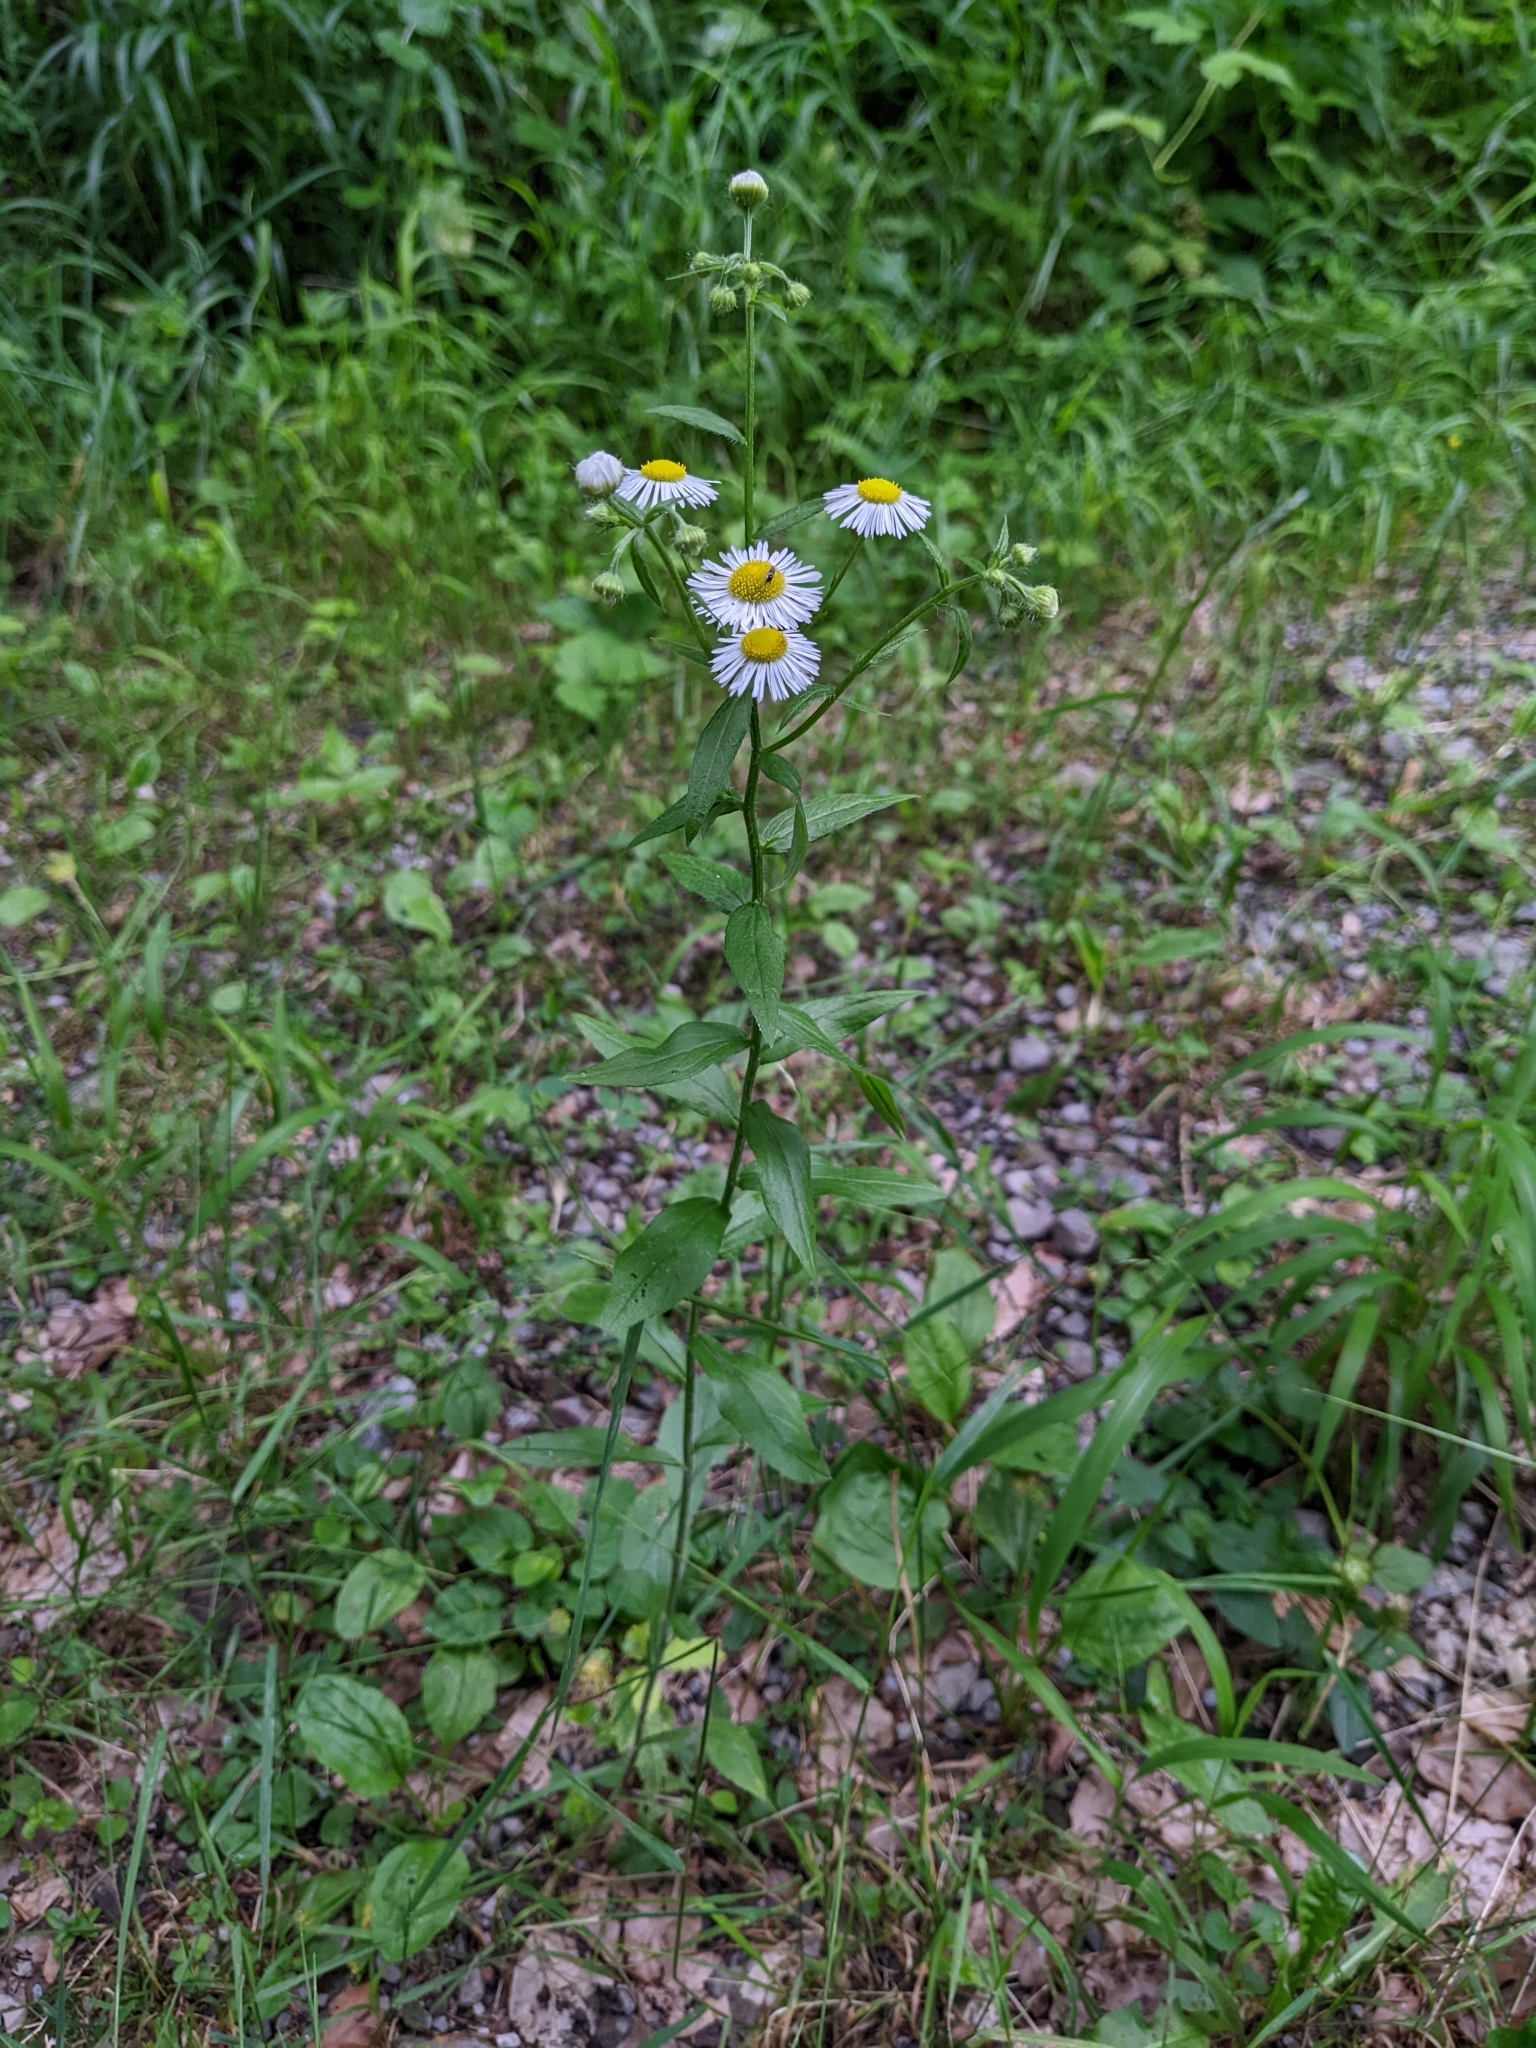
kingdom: Plantae
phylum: Tracheophyta
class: Magnoliopsida
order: Asterales
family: Asteraceae
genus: Erigeron
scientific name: Erigeron annuus
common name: Tall fleabane
